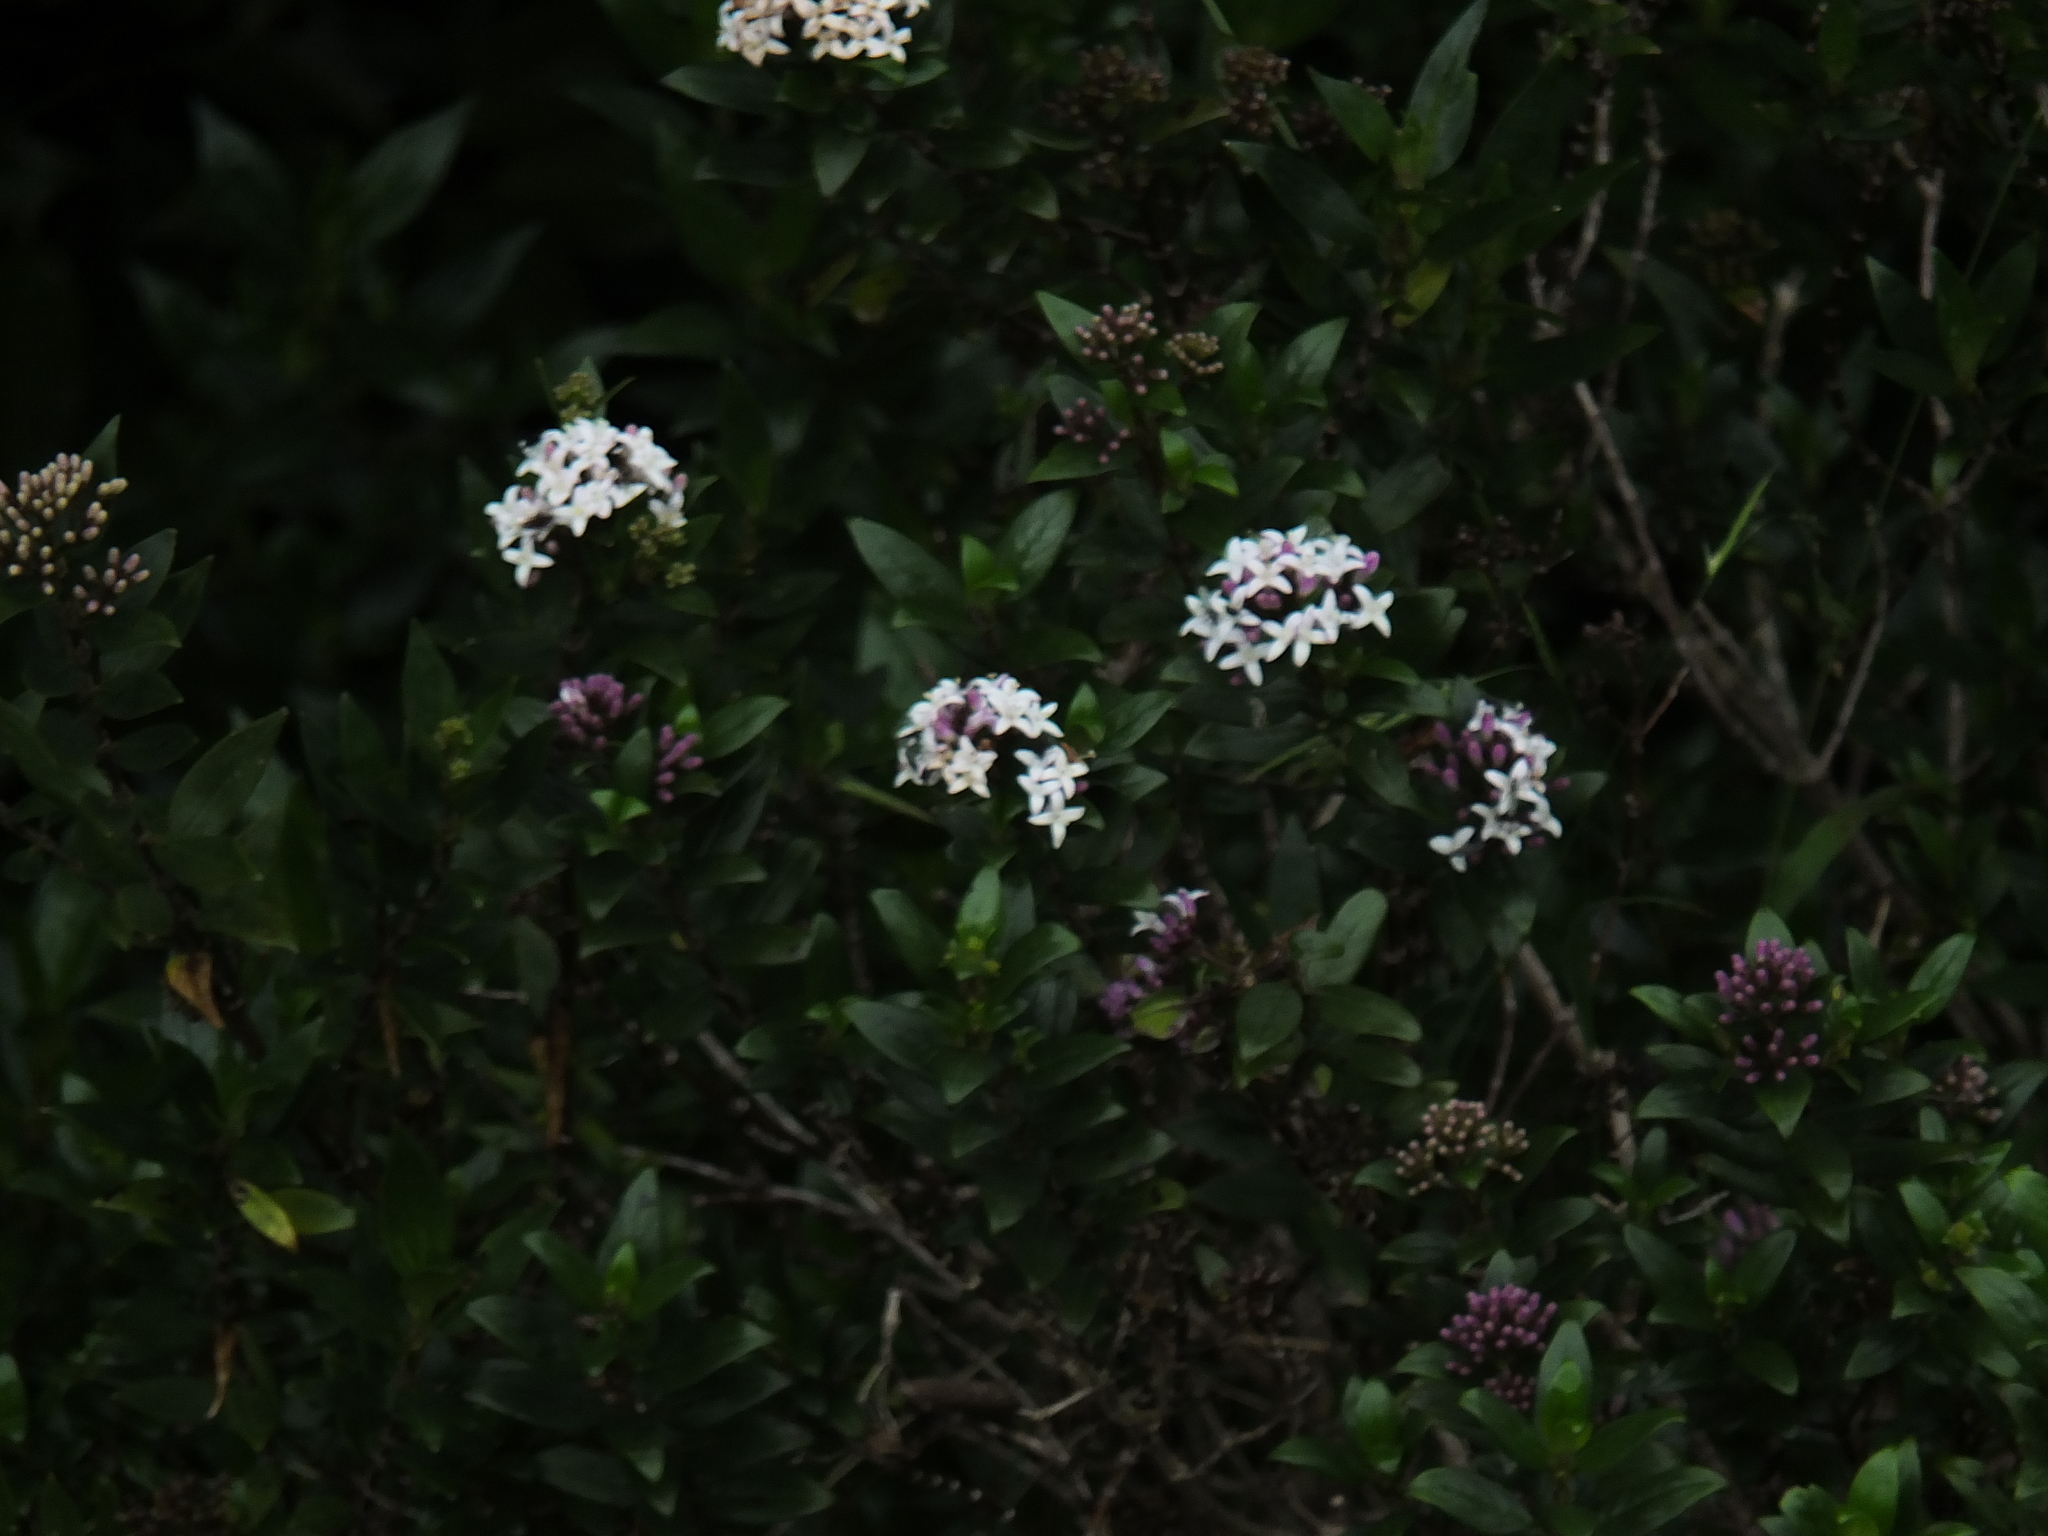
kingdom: Plantae
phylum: Tracheophyta
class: Magnoliopsida
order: Gentianales
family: Rubiaceae
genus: Hedyotis
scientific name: Hedyotis articularis
